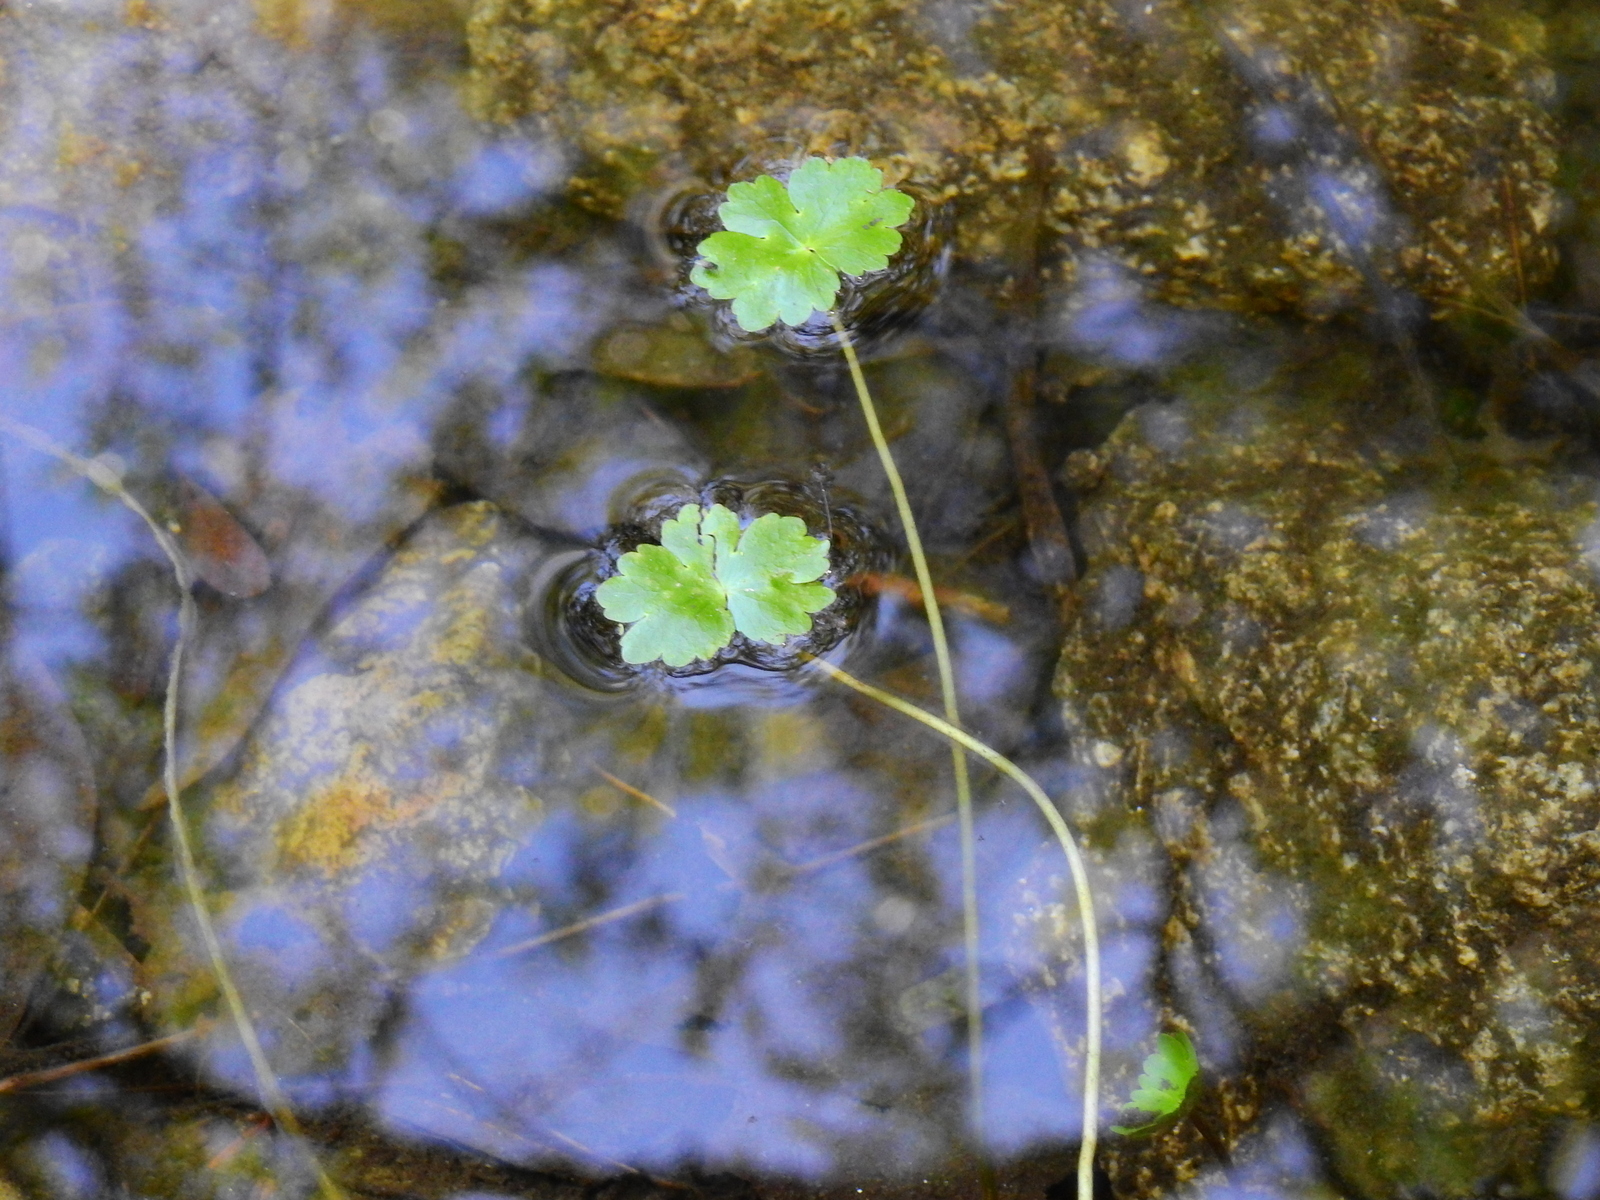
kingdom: Plantae
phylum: Tracheophyta
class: Magnoliopsida
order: Apiales
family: Araliaceae
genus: Hydrocotyle
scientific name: Hydrocotyle ranunculoides
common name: Floating pennywort
